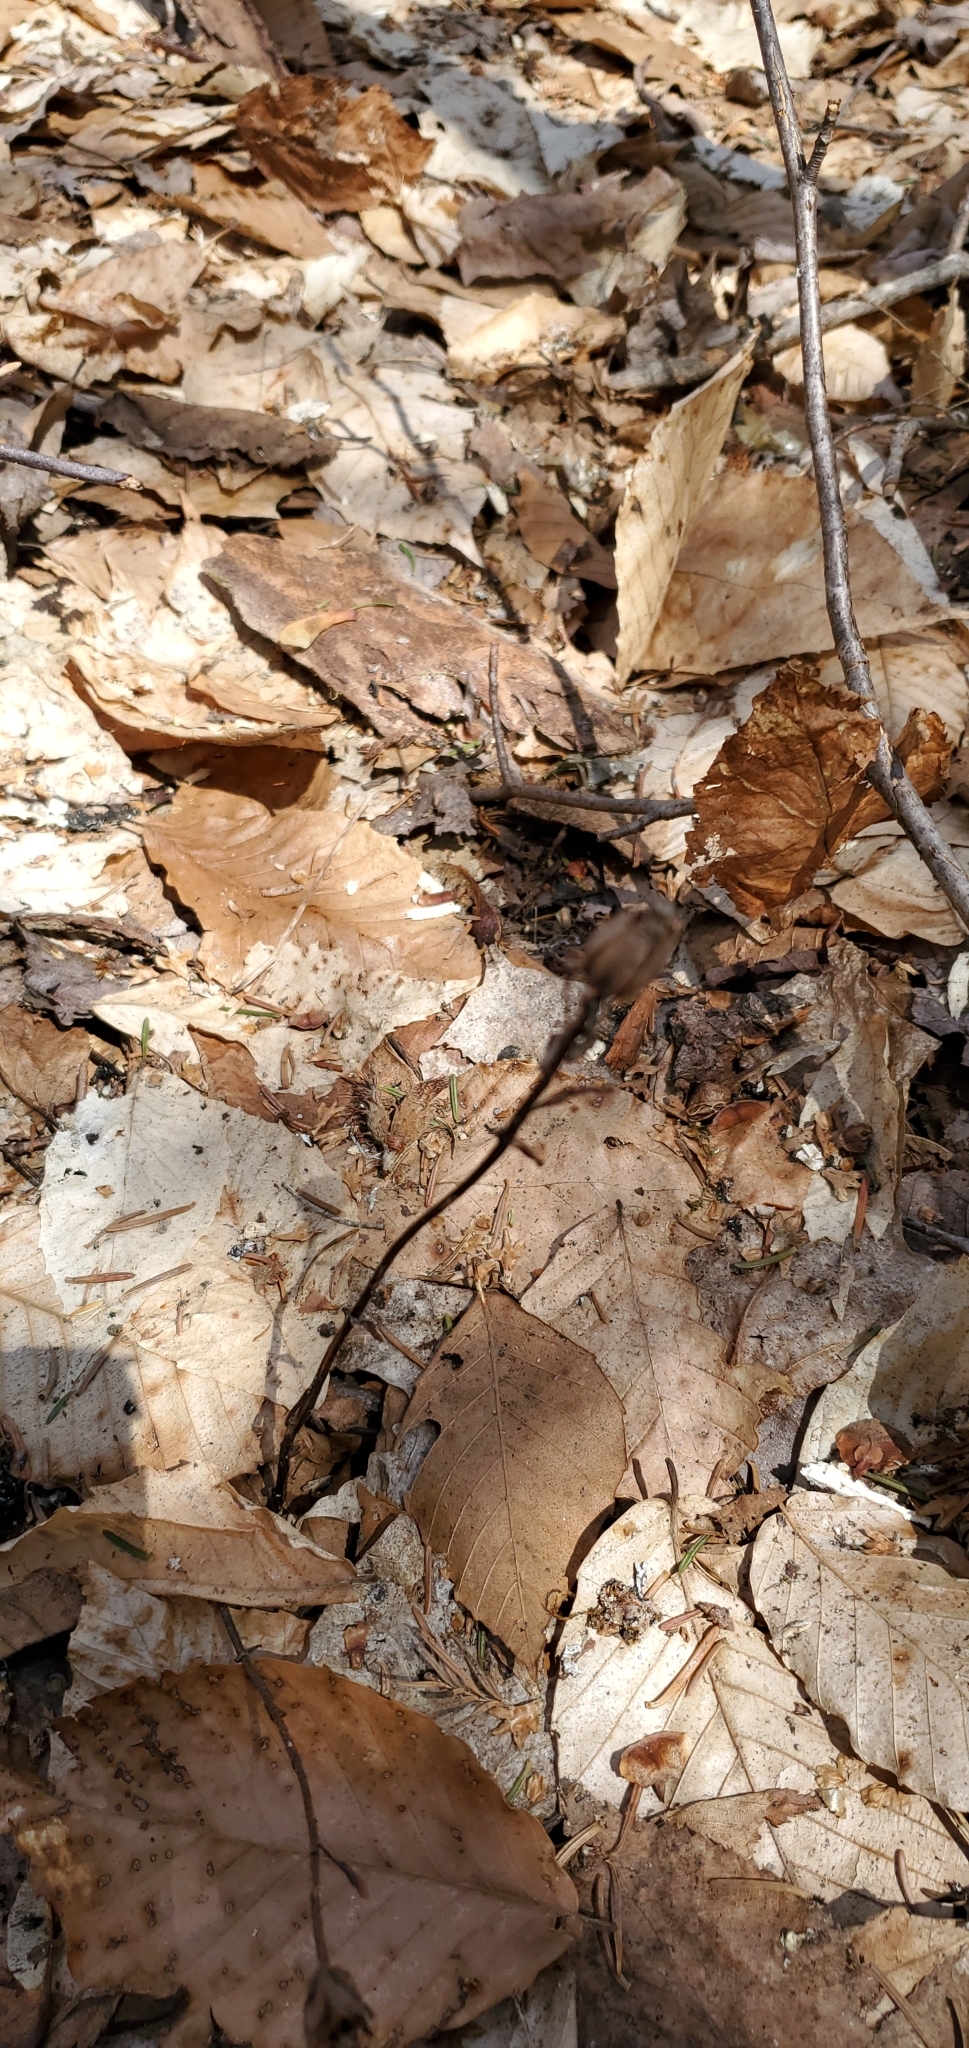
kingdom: Plantae
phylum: Tracheophyta
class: Magnoliopsida
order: Ericales
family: Ericaceae
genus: Monotropa
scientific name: Monotropa uniflora
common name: Convulsion root
